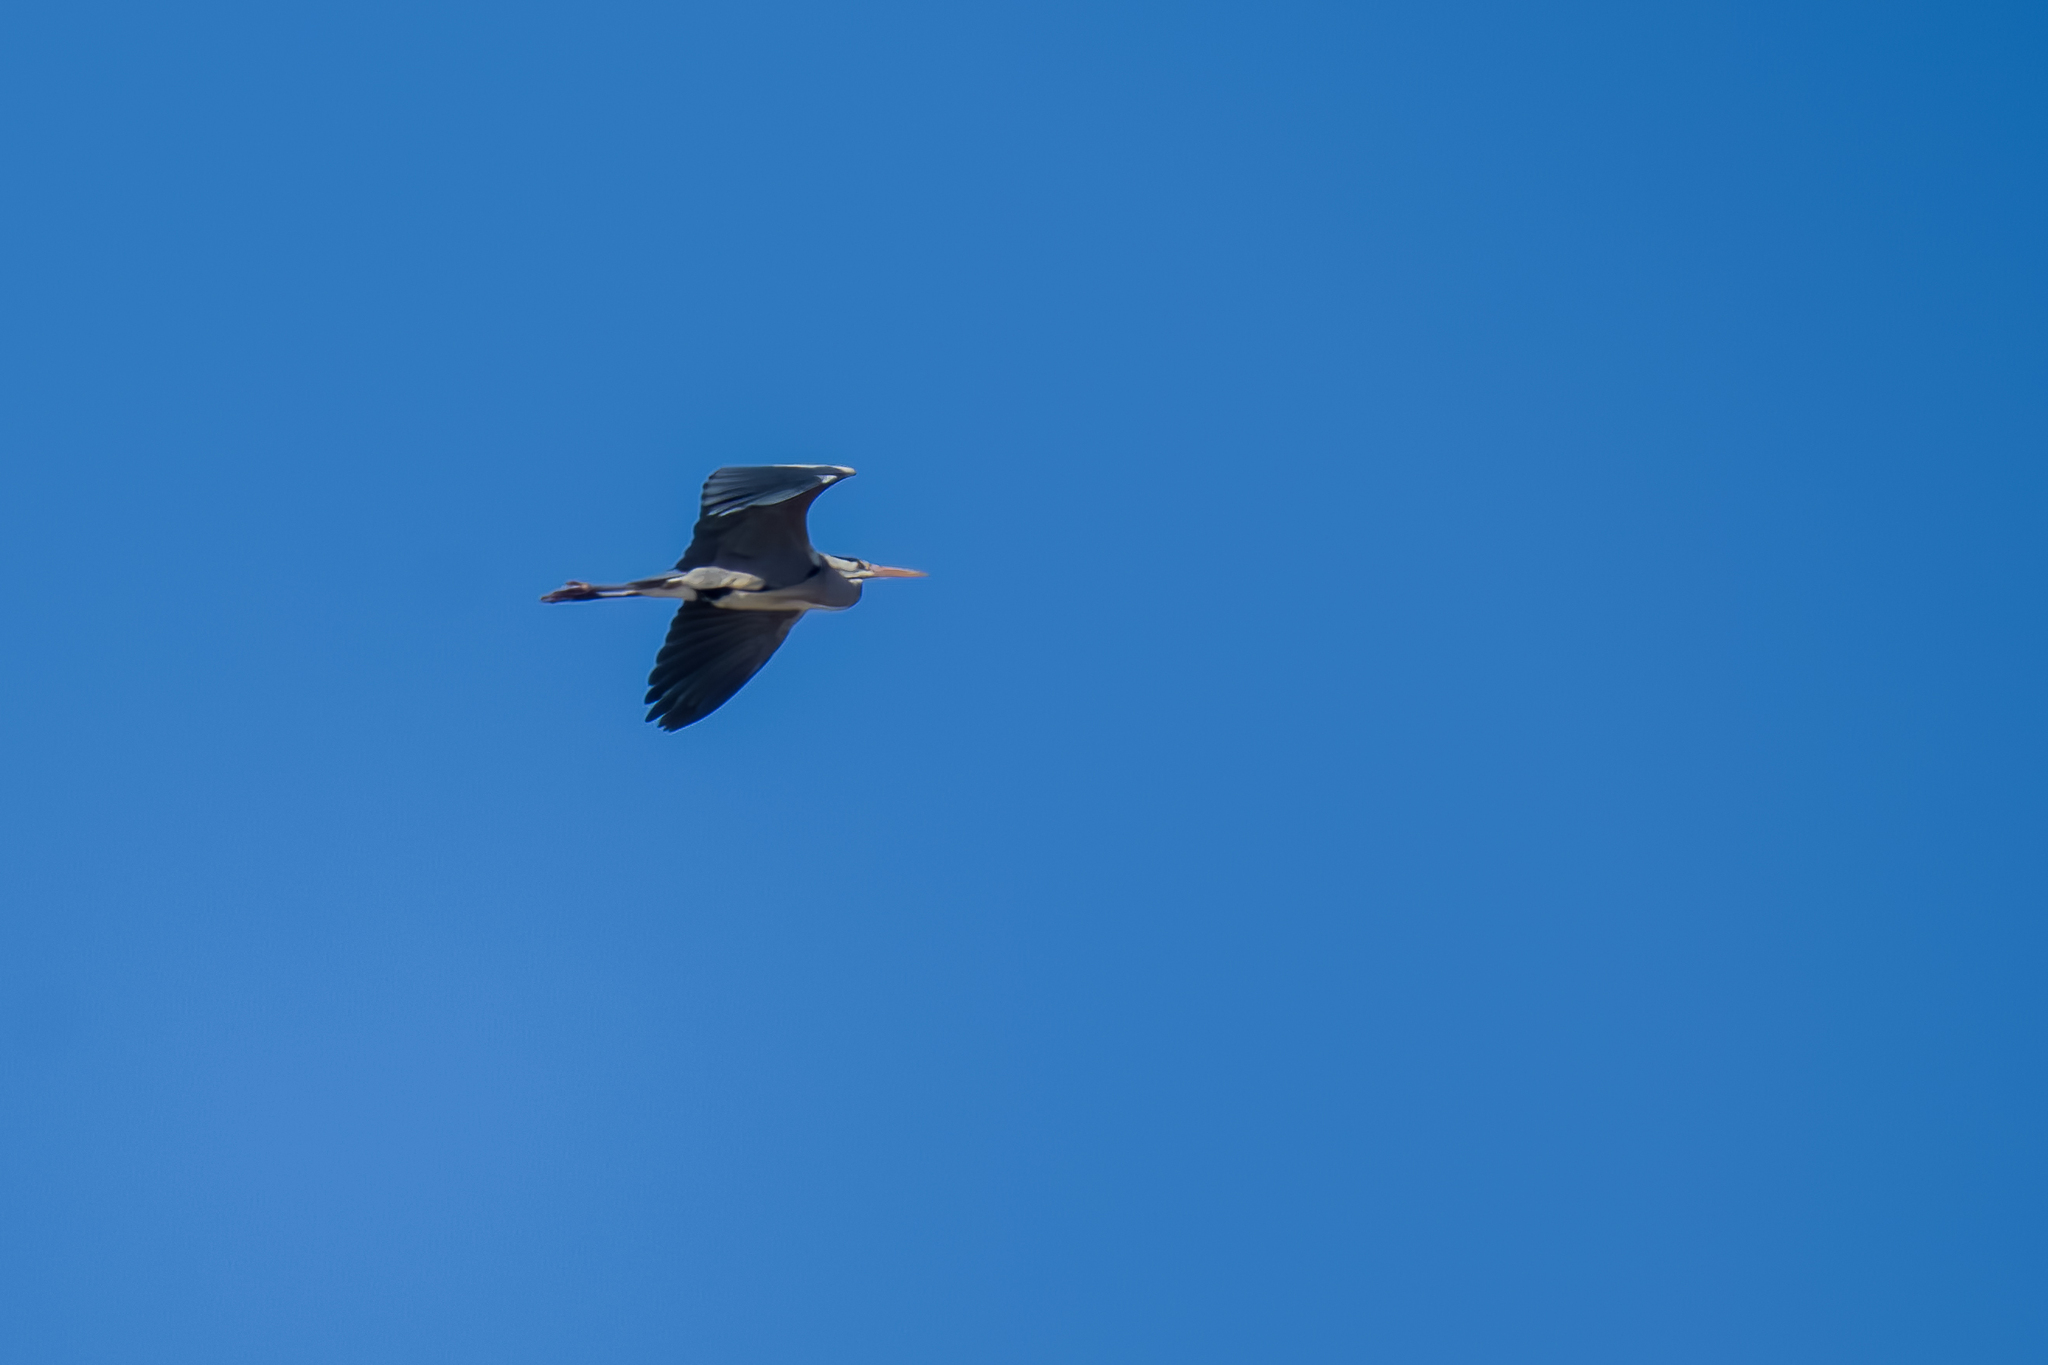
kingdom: Animalia
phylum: Chordata
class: Aves
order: Pelecaniformes
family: Ardeidae
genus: Ardea
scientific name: Ardea cinerea
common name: Grey heron
